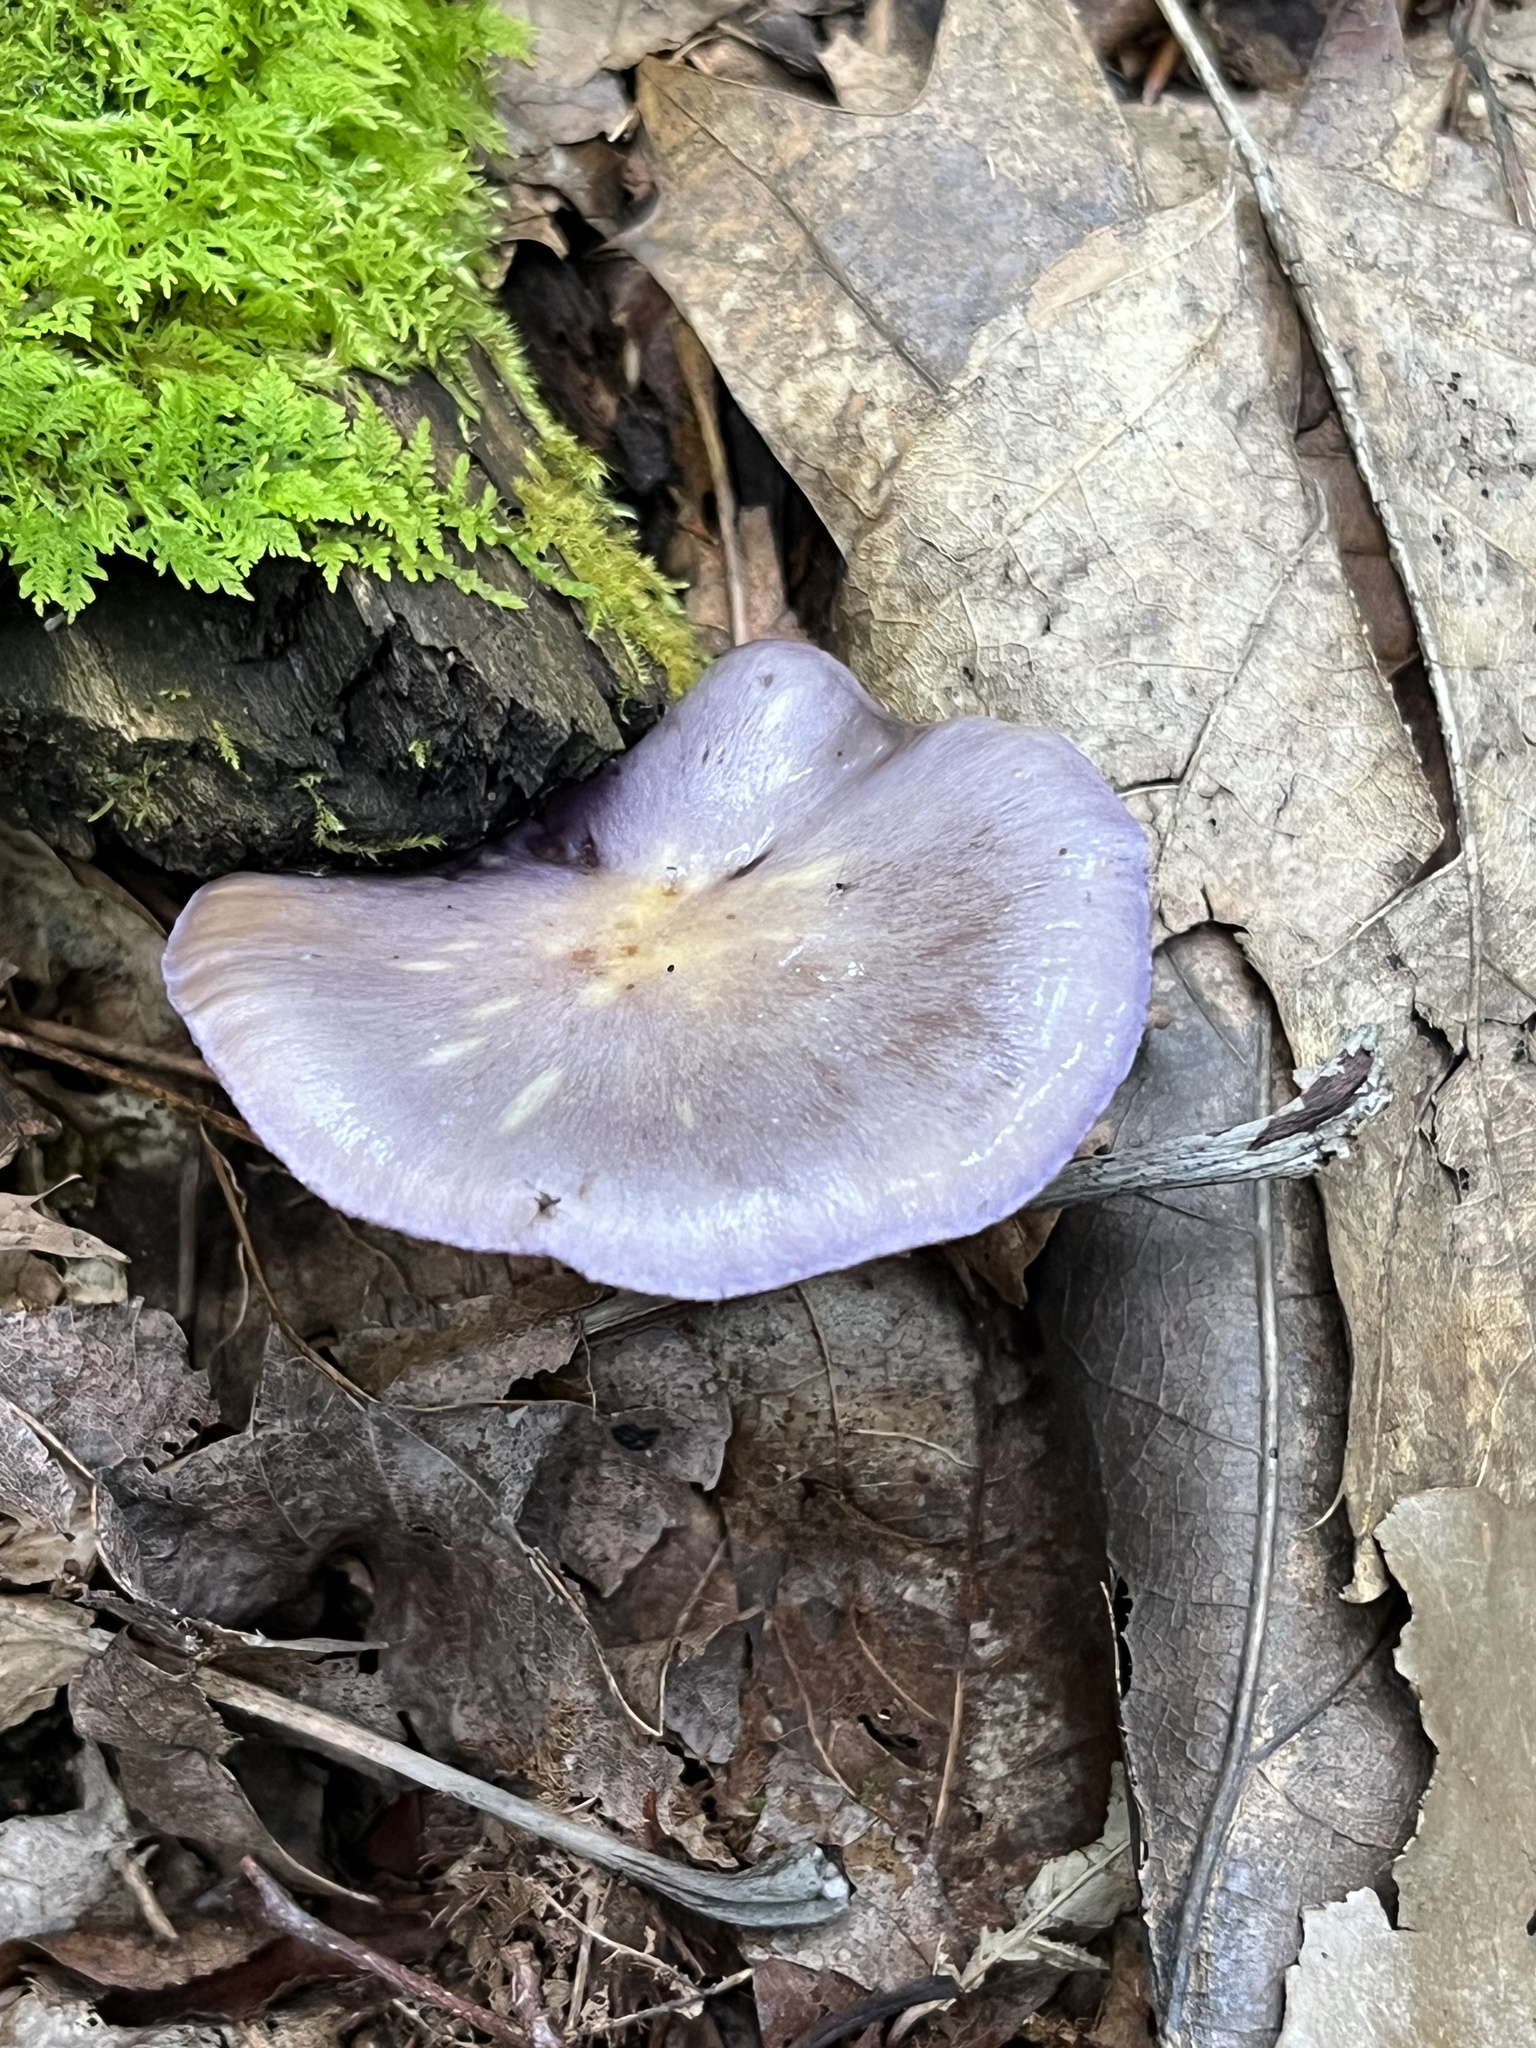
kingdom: Fungi
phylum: Basidiomycota
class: Agaricomycetes
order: Agaricales
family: Cortinariaceae
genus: Cortinarius
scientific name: Cortinarius iodes
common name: Viscid violet cort
